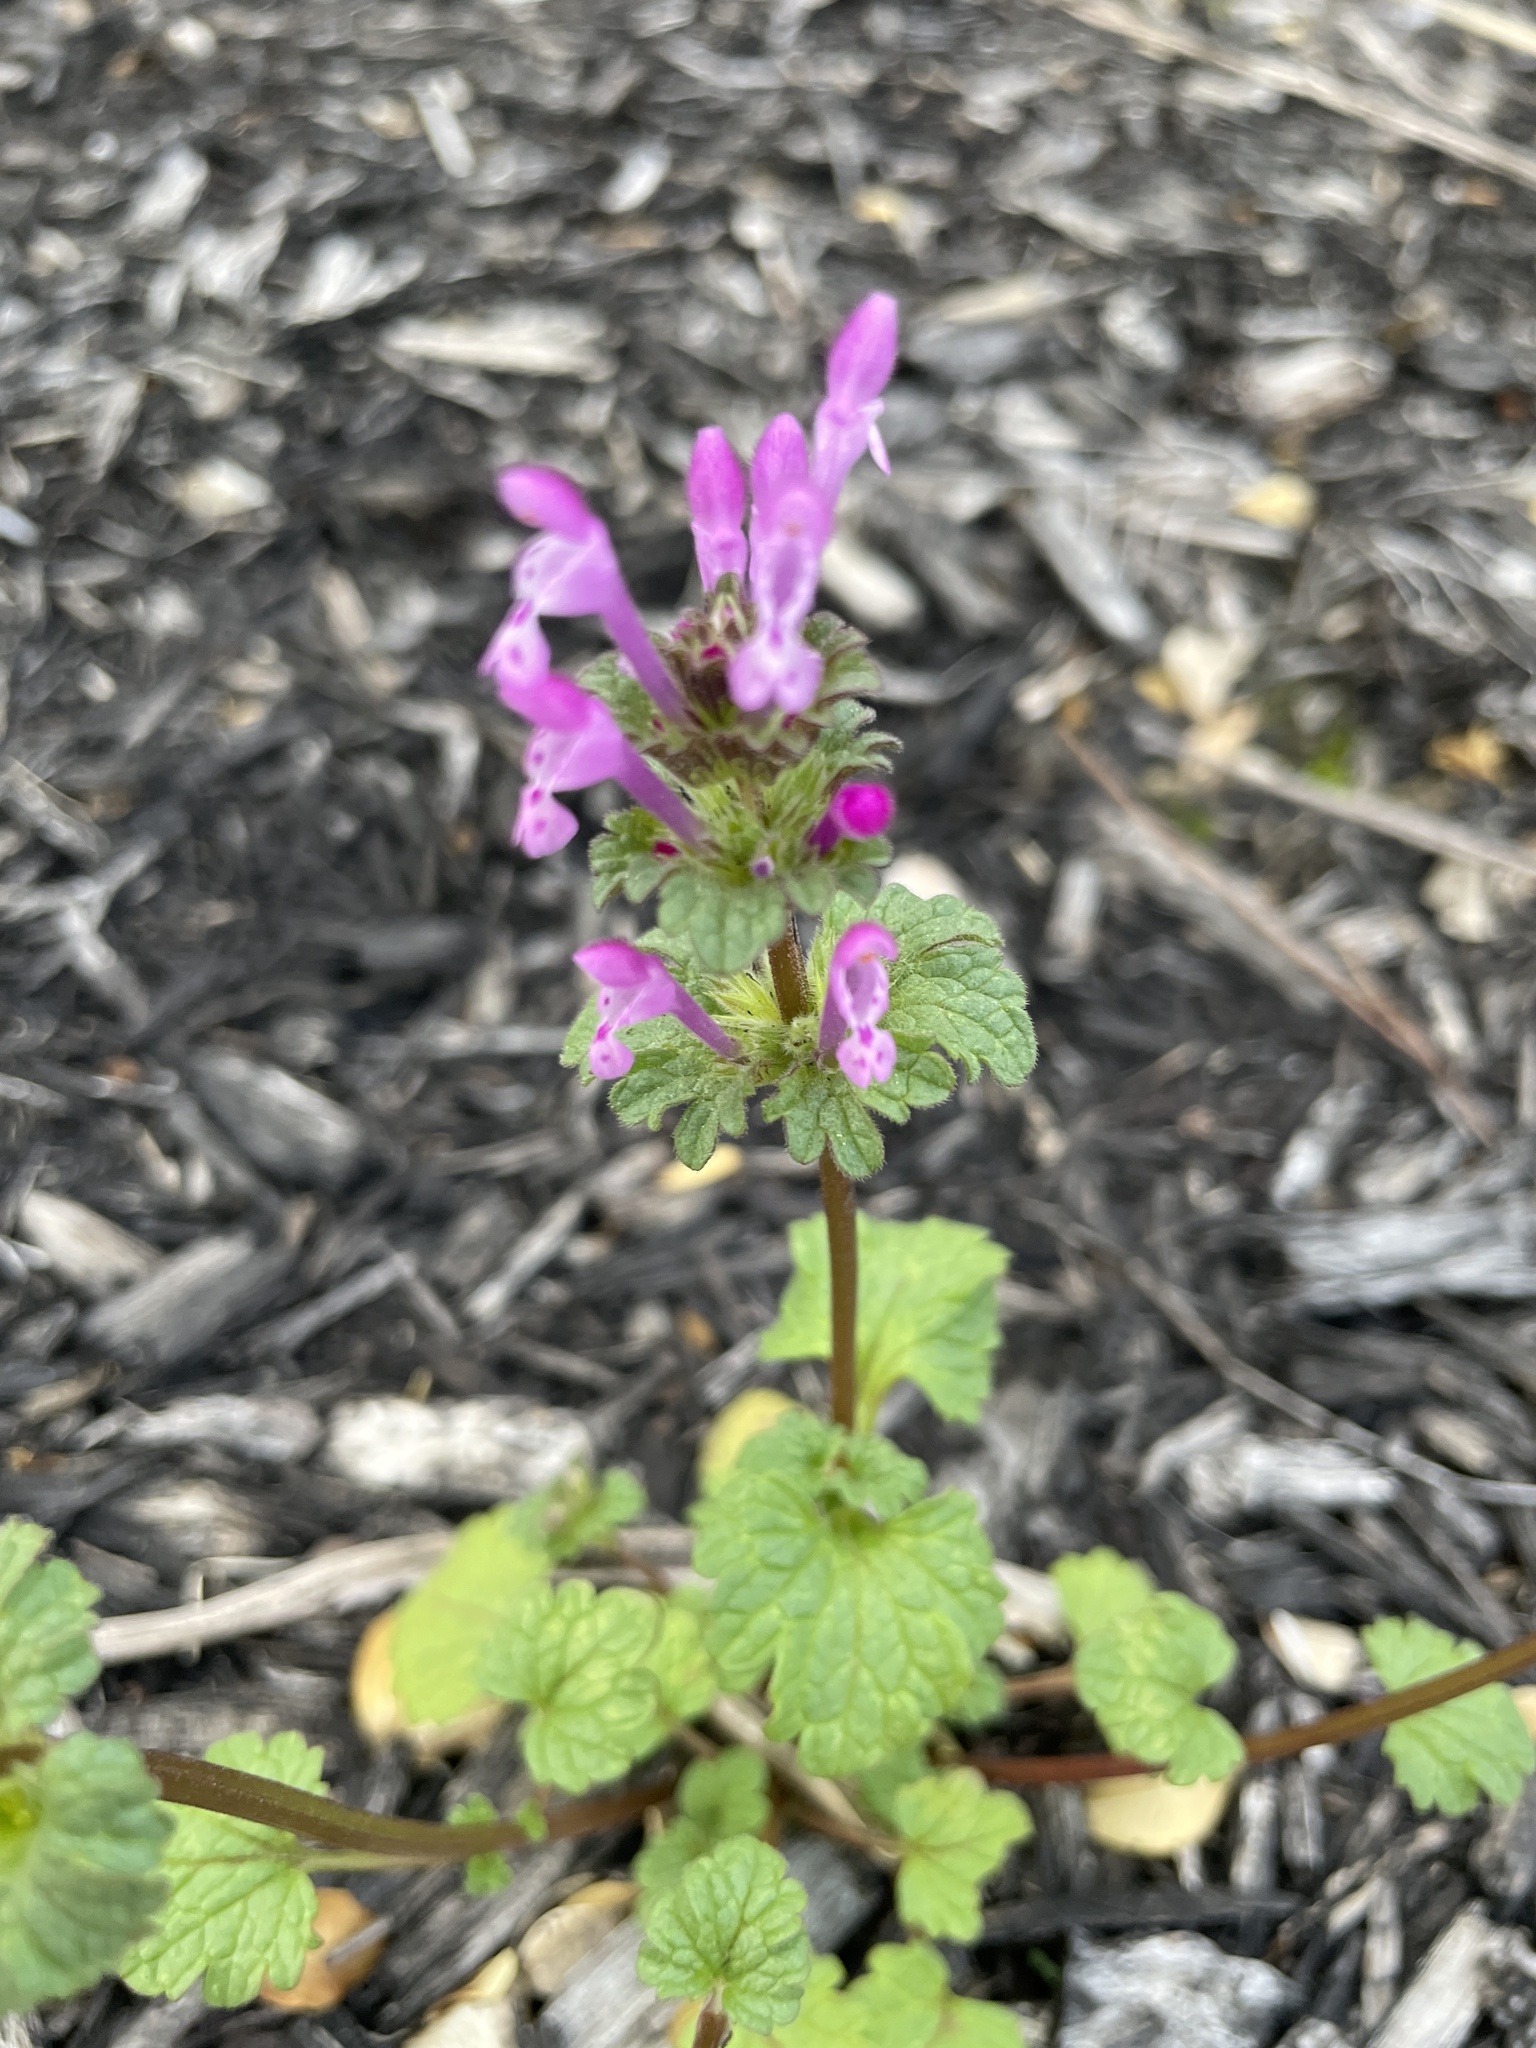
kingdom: Plantae
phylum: Tracheophyta
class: Magnoliopsida
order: Lamiales
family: Lamiaceae
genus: Lamium
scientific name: Lamium amplexicaule
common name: Henbit dead-nettle
